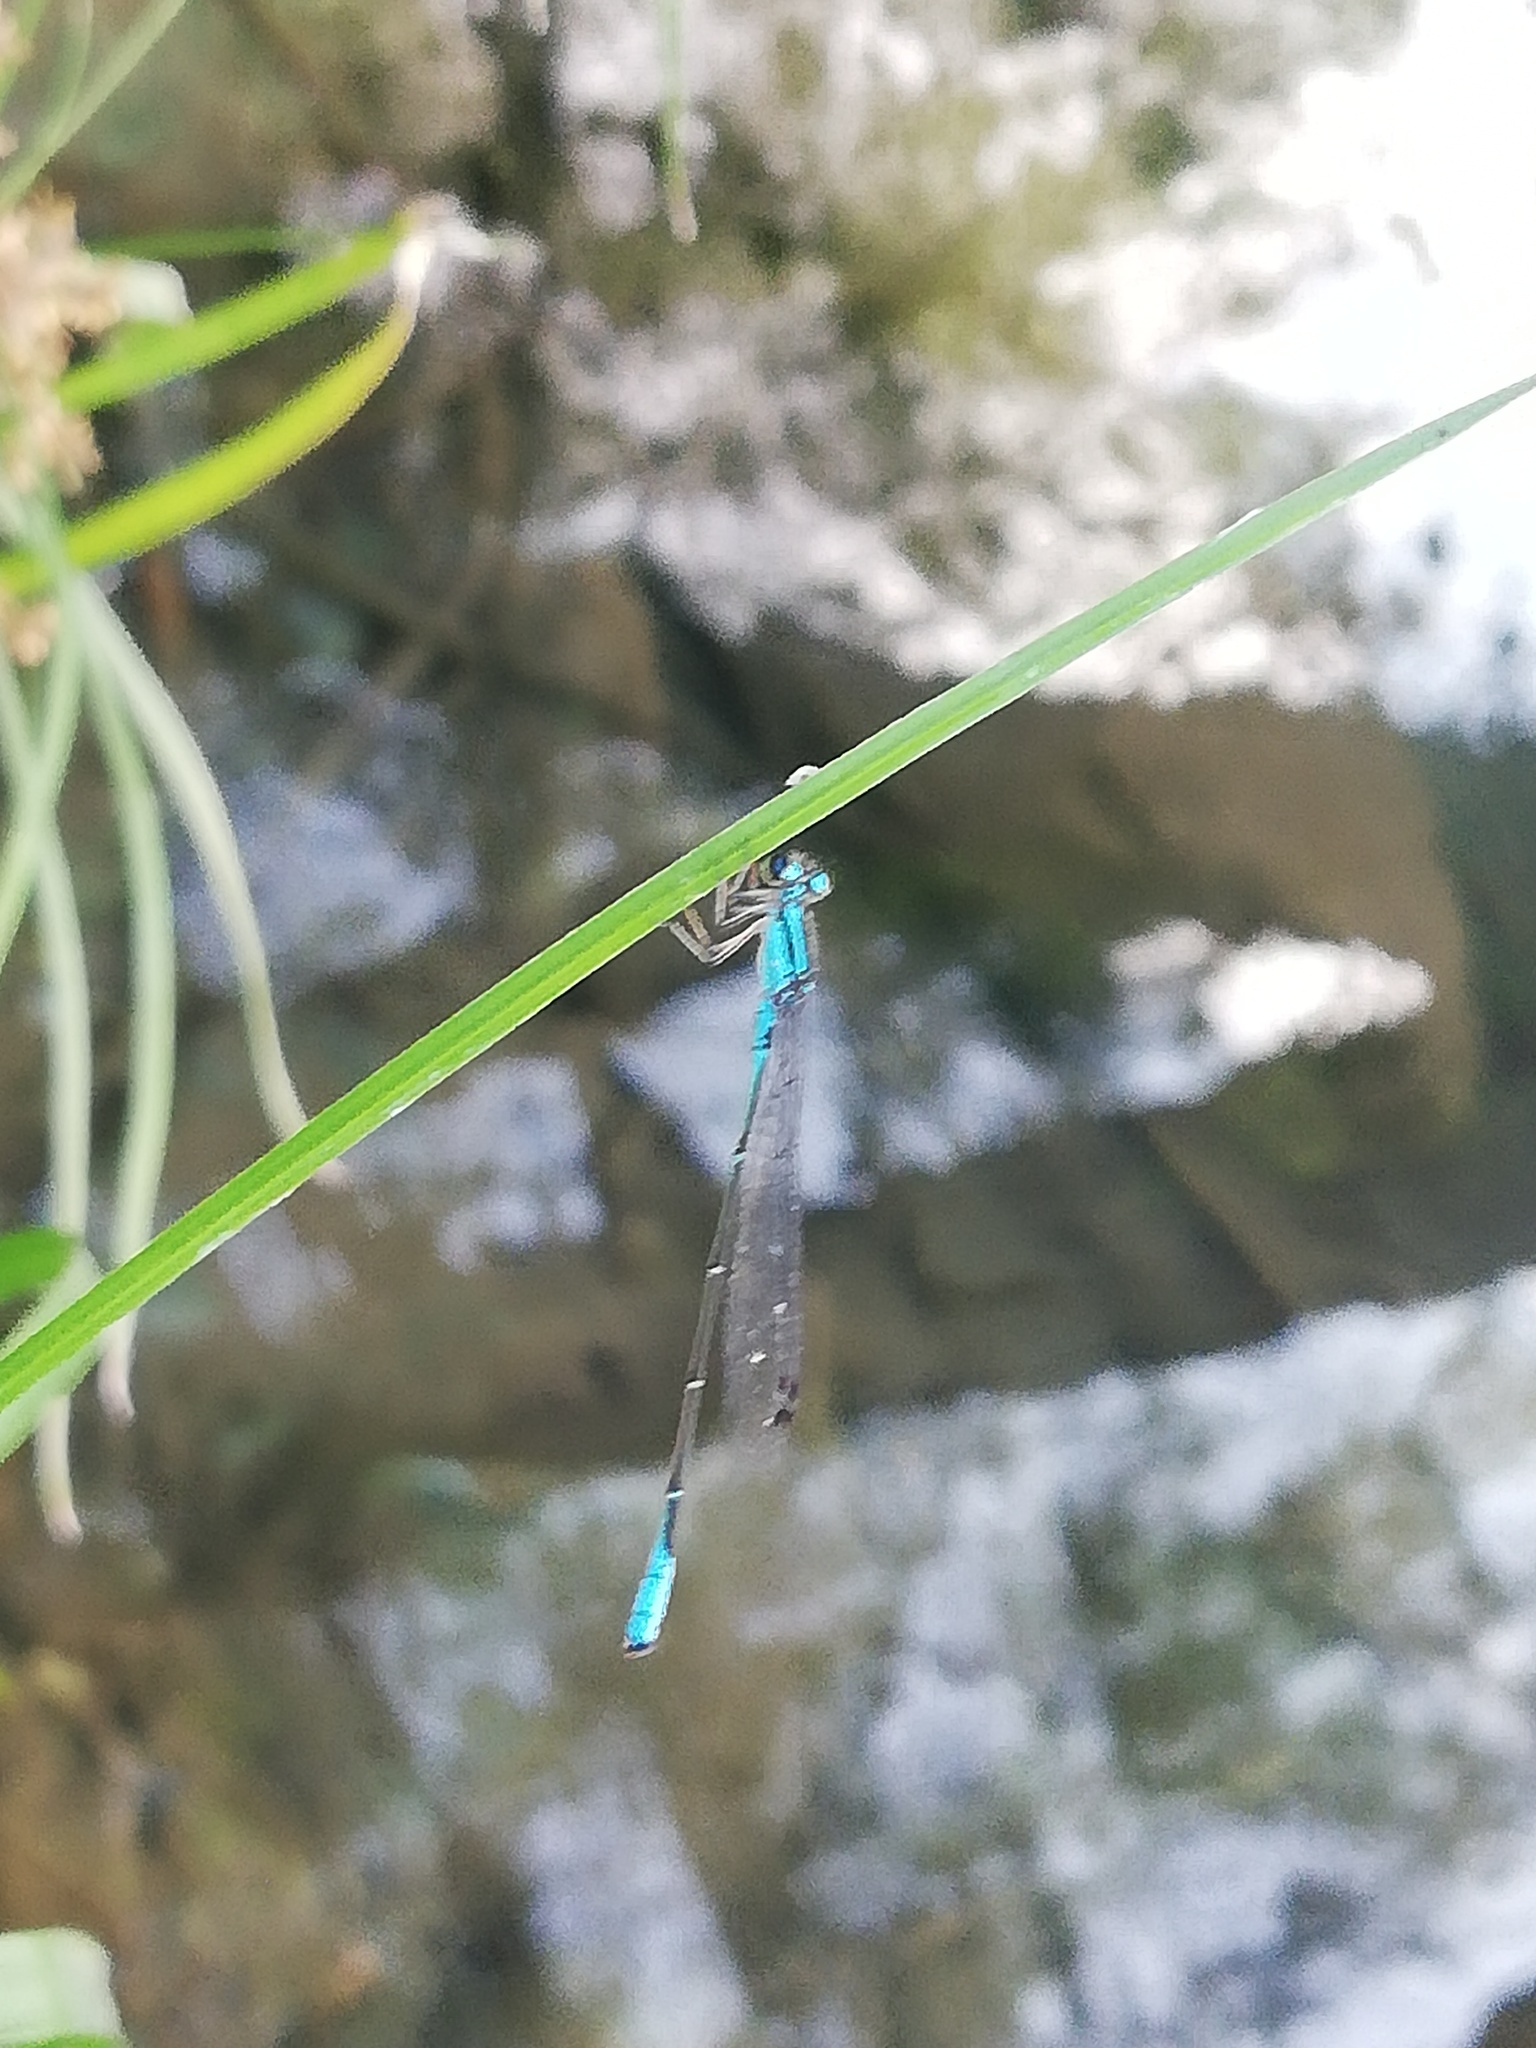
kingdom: Animalia
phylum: Arthropoda
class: Insecta
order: Odonata
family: Coenagrionidae
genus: Acanthagrion
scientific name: Acanthagrion quadratum
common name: Mexican wedgetail
